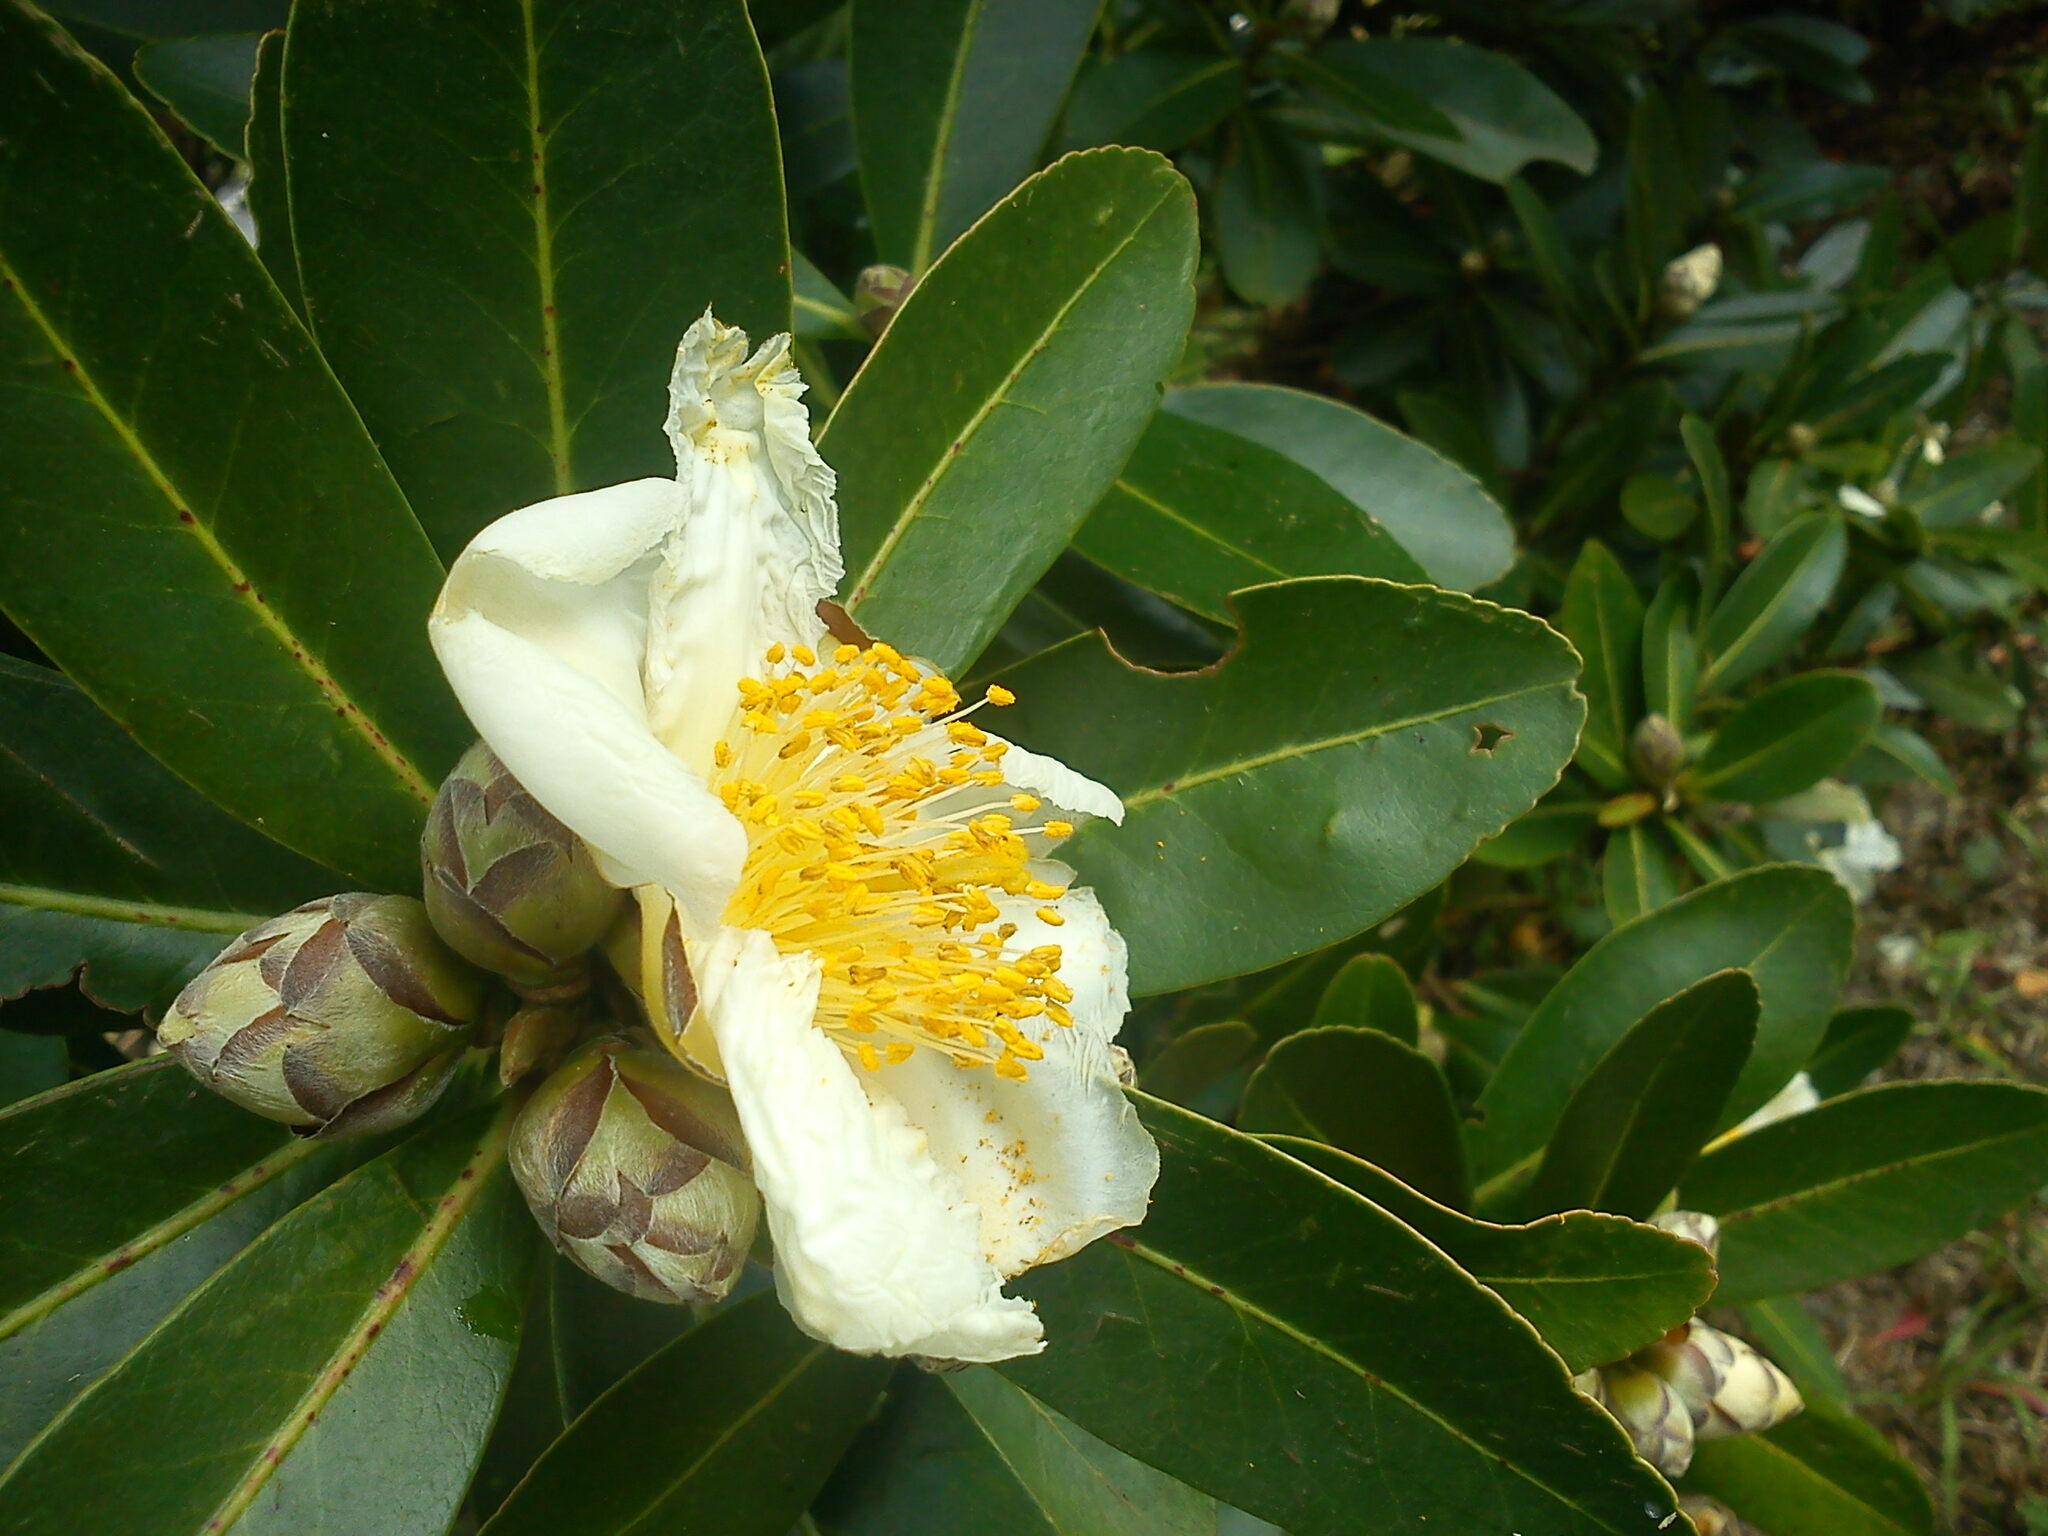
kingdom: Plantae
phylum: Tracheophyta
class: Magnoliopsida
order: Ericales
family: Theaceae
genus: Polyspora
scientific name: Polyspora axillaris
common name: Fried egg tree
